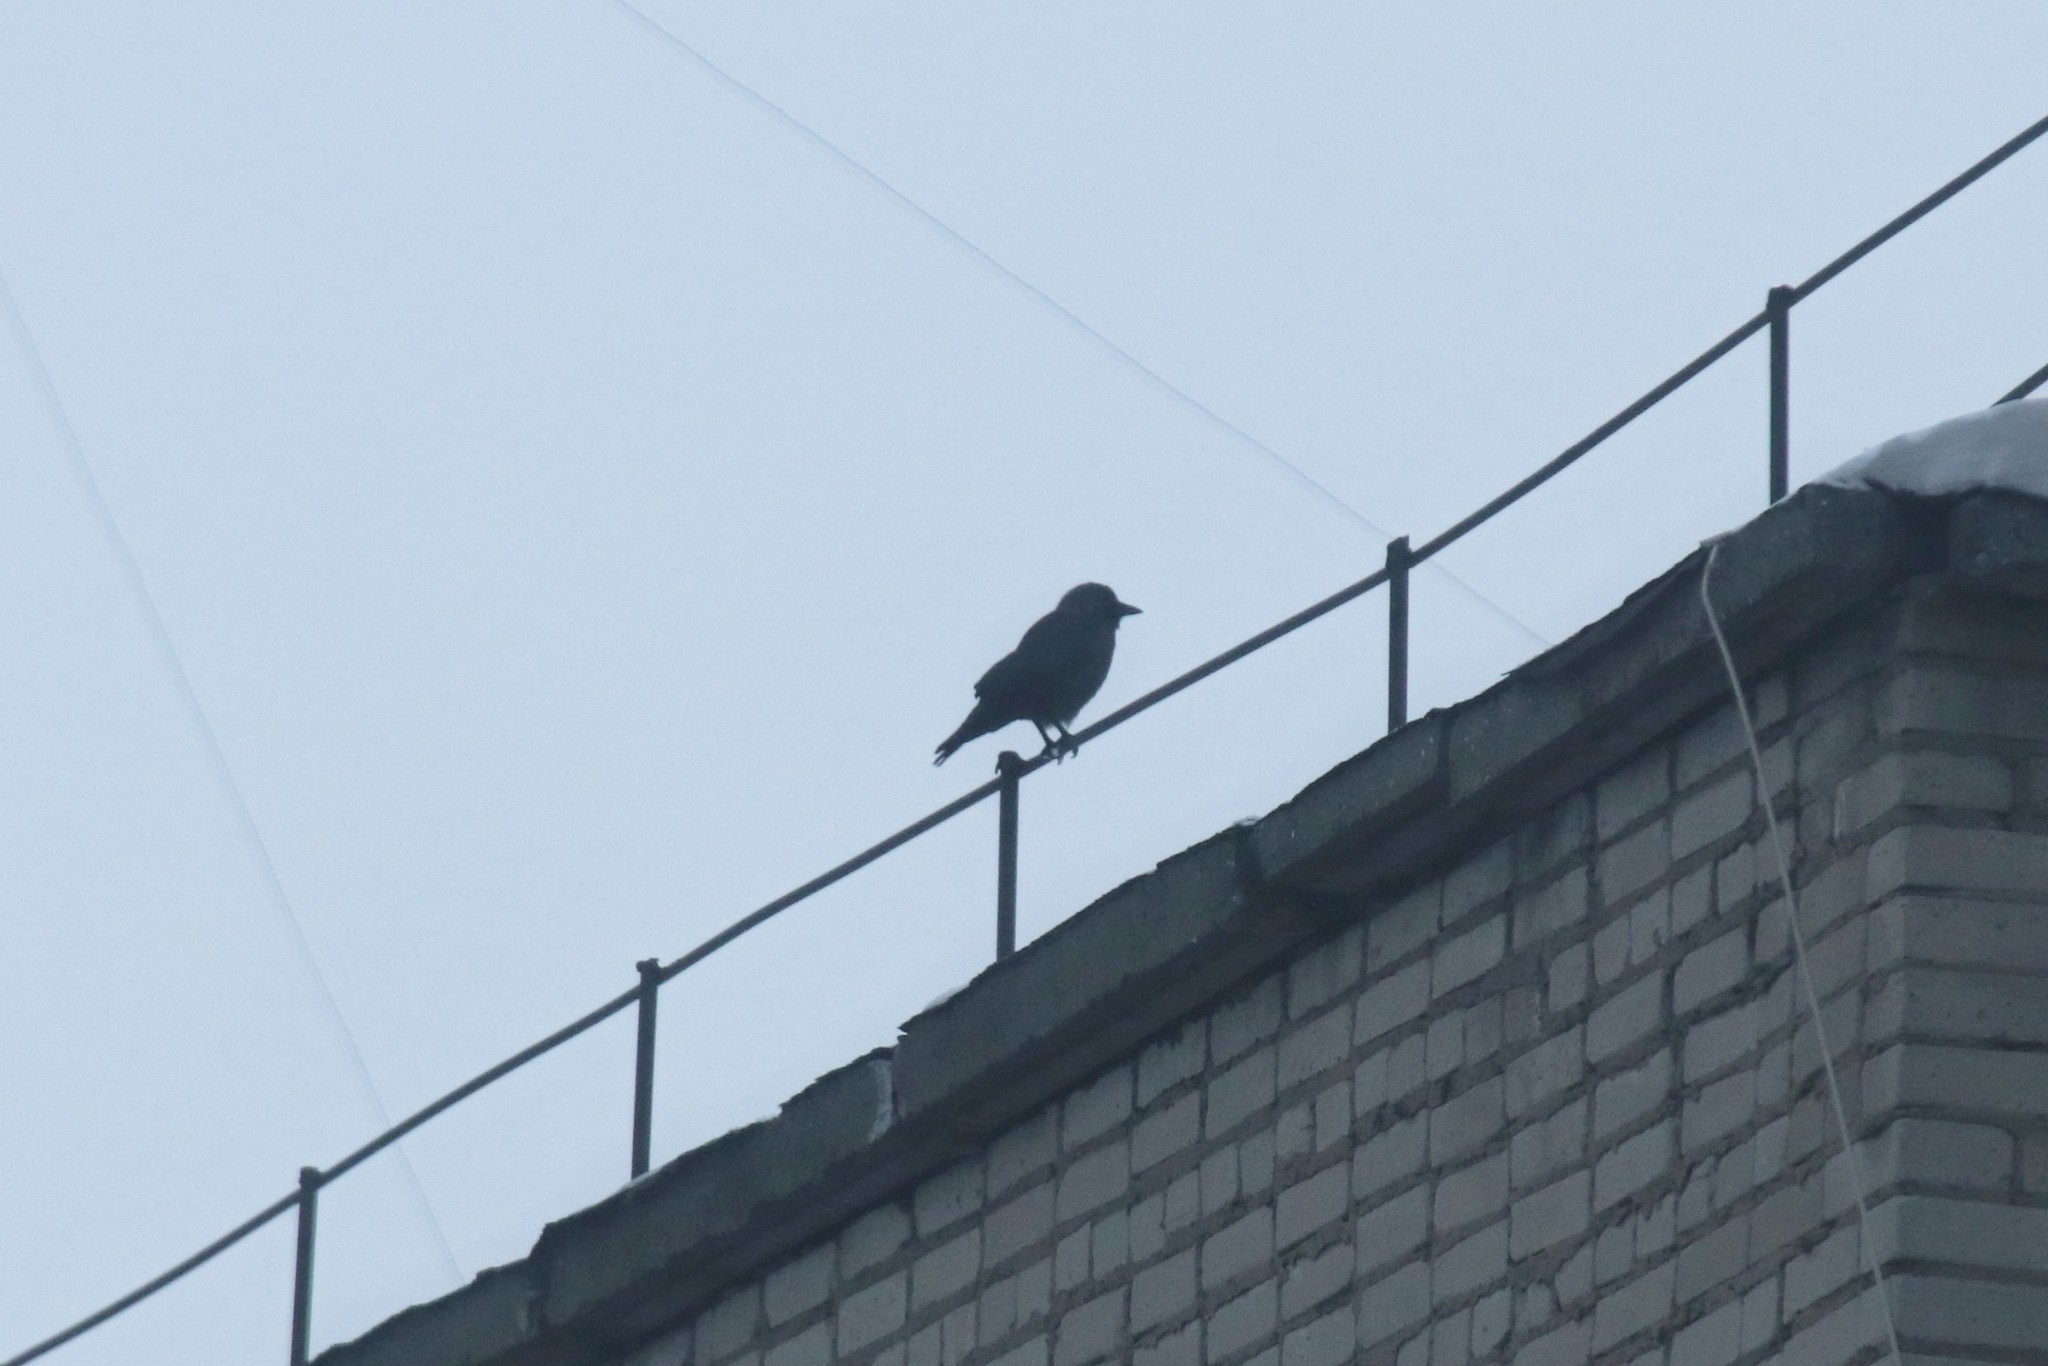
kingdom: Animalia
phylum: Chordata
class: Aves
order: Passeriformes
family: Corvidae
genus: Coloeus
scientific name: Coloeus monedula
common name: Western jackdaw
